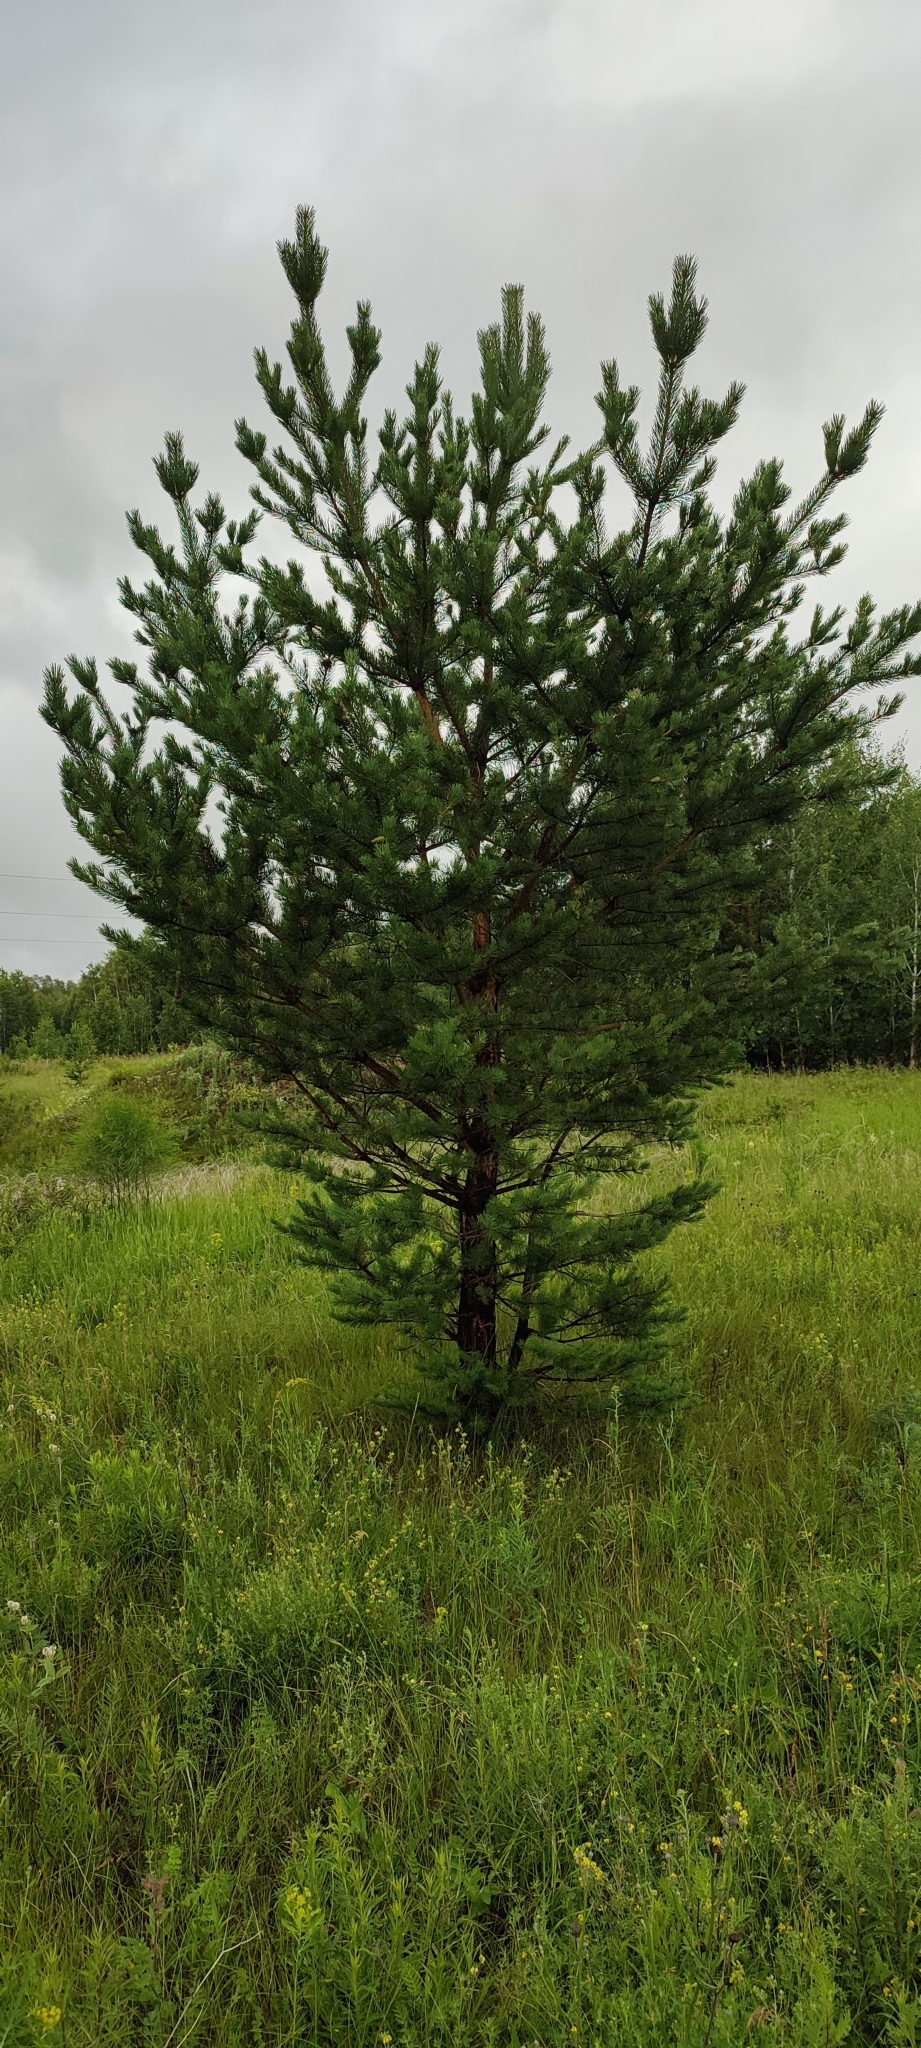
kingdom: Plantae
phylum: Tracheophyta
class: Pinopsida
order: Pinales
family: Pinaceae
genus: Pinus
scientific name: Pinus sylvestris
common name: Scots pine
